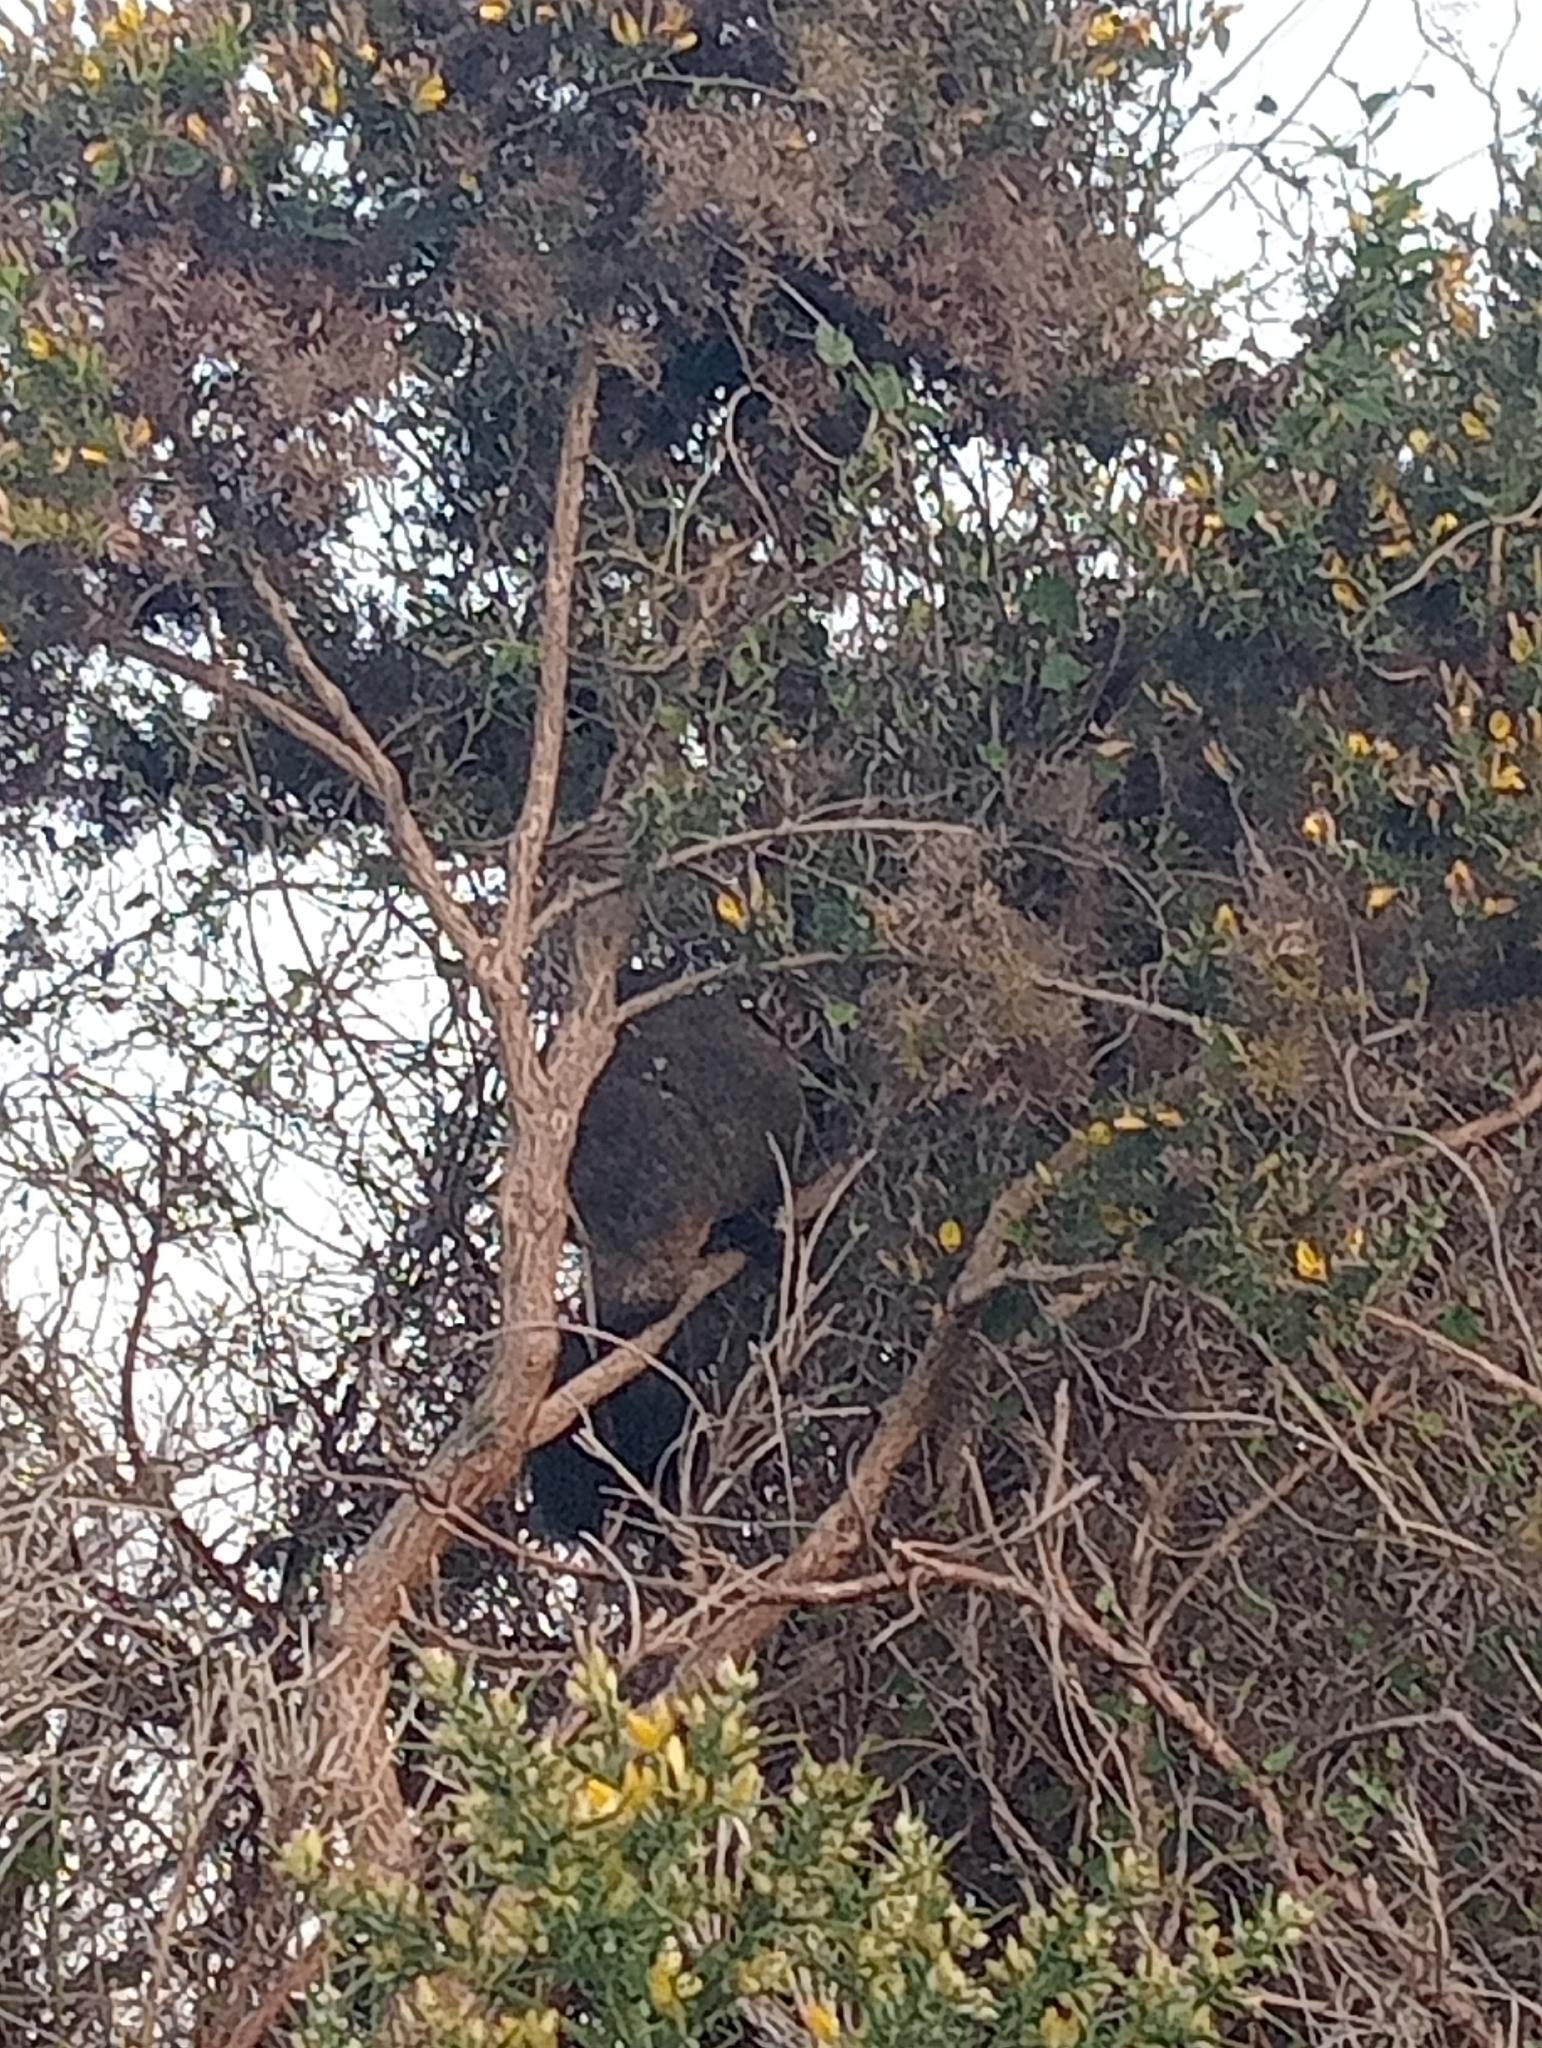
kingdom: Animalia
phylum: Chordata
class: Mammalia
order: Diprotodontia
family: Phalangeridae
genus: Trichosurus
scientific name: Trichosurus vulpecula
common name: Common brushtail
